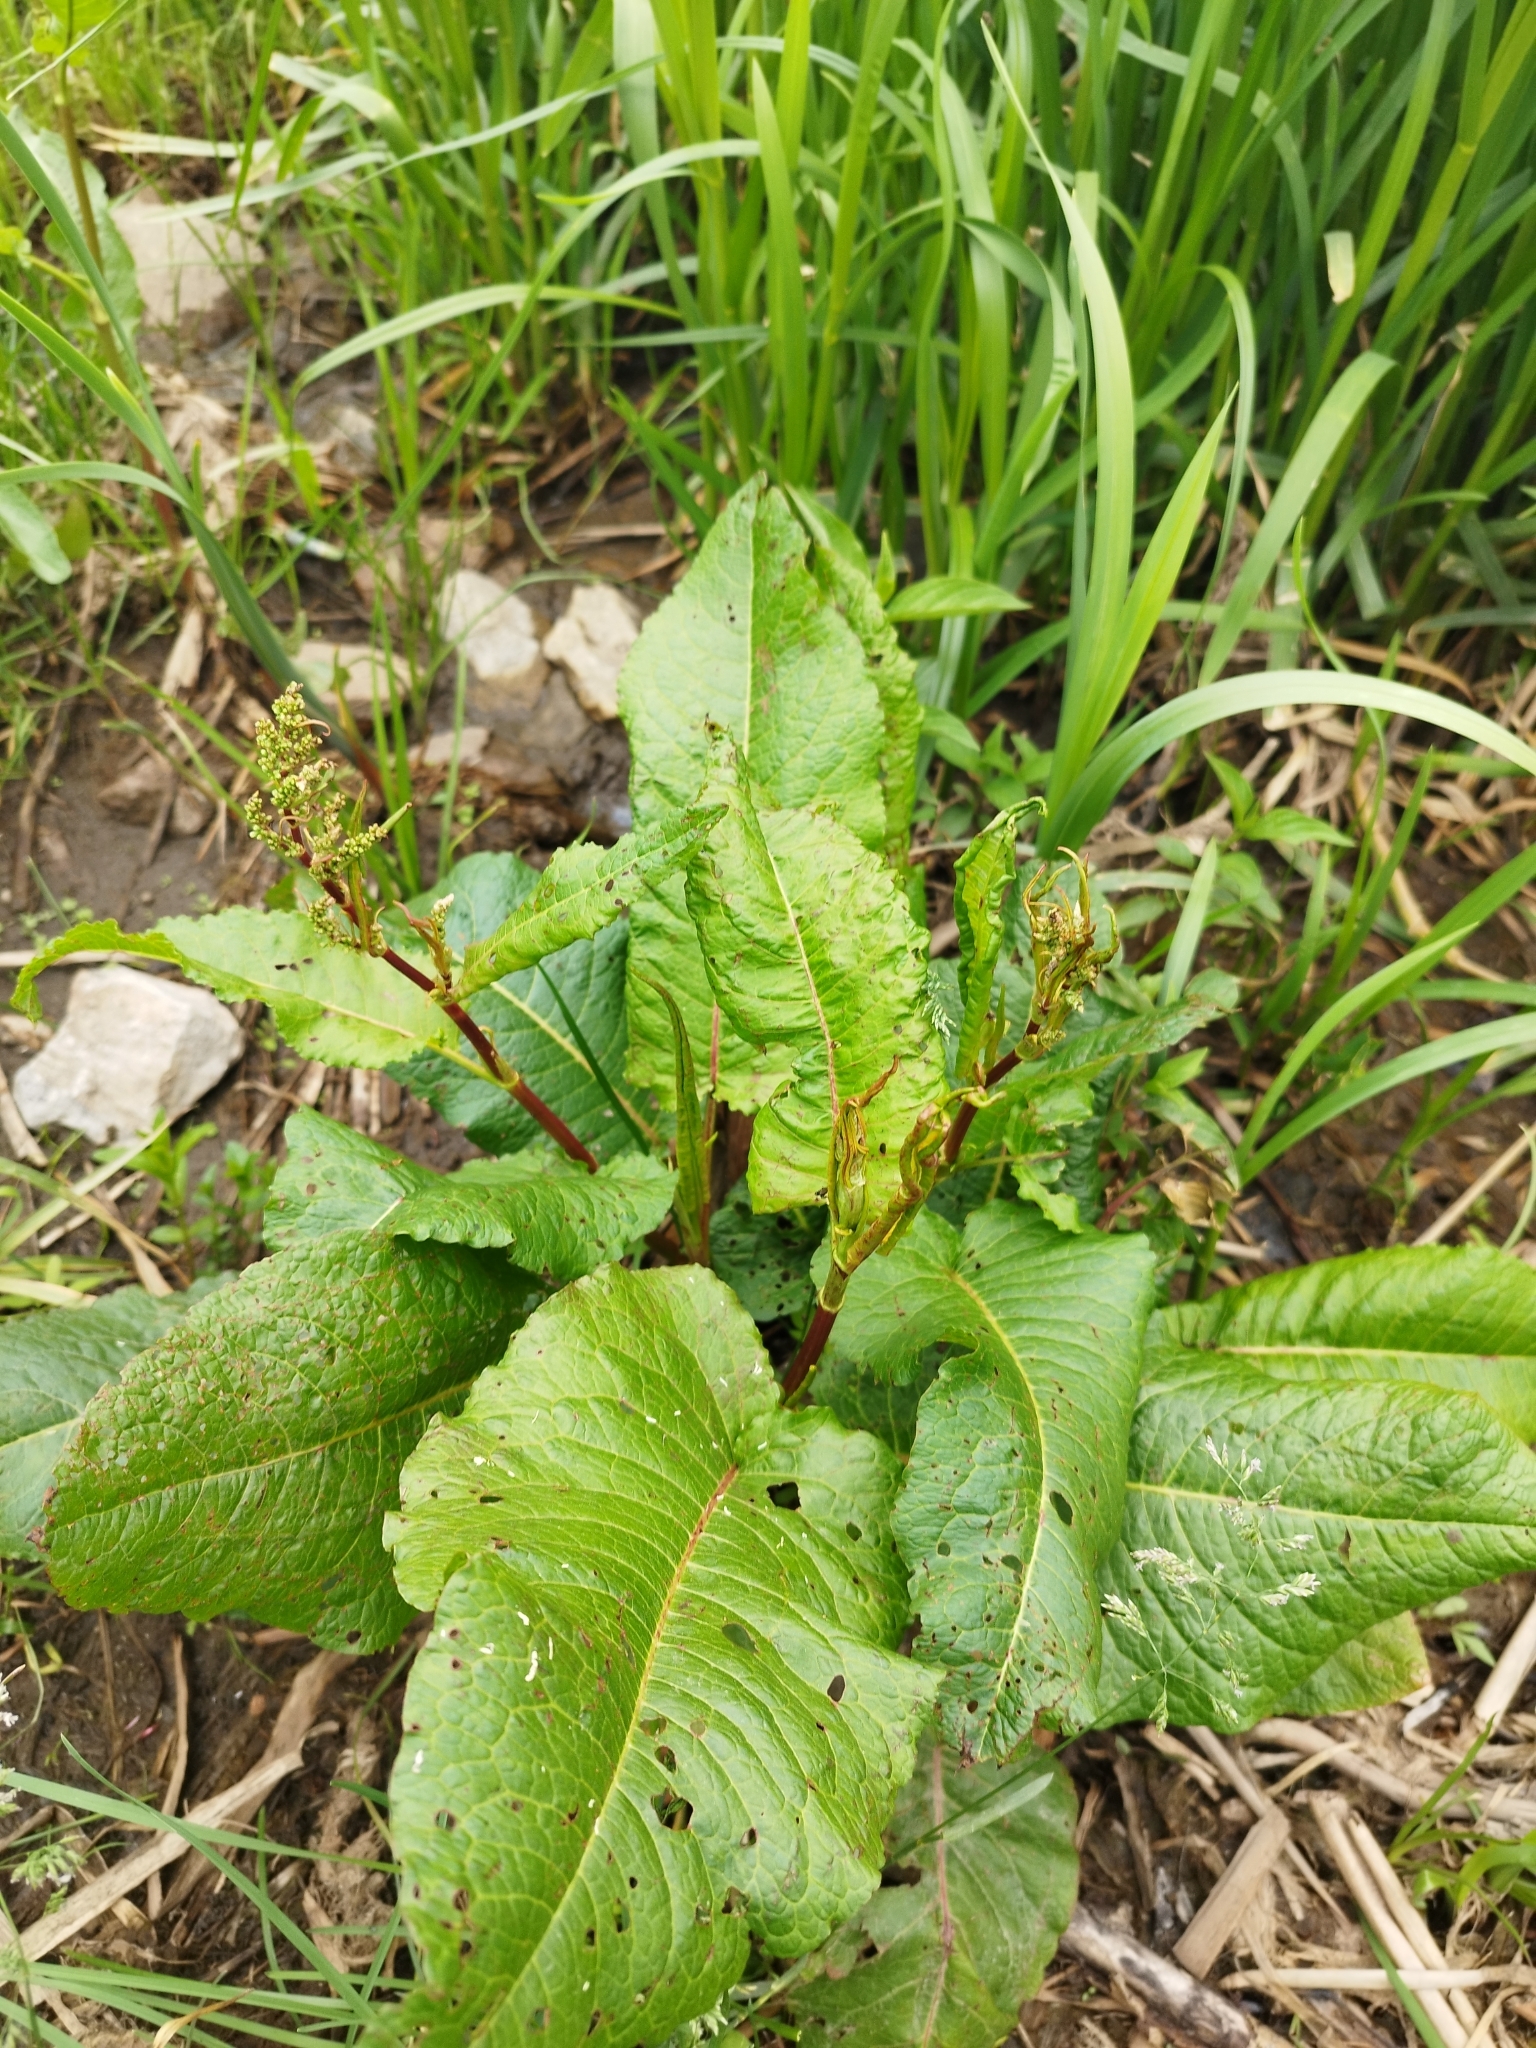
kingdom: Plantae
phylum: Tracheophyta
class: Magnoliopsida
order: Caryophyllales
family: Polygonaceae
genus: Rumex
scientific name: Rumex obtusifolius
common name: Bitter dock
